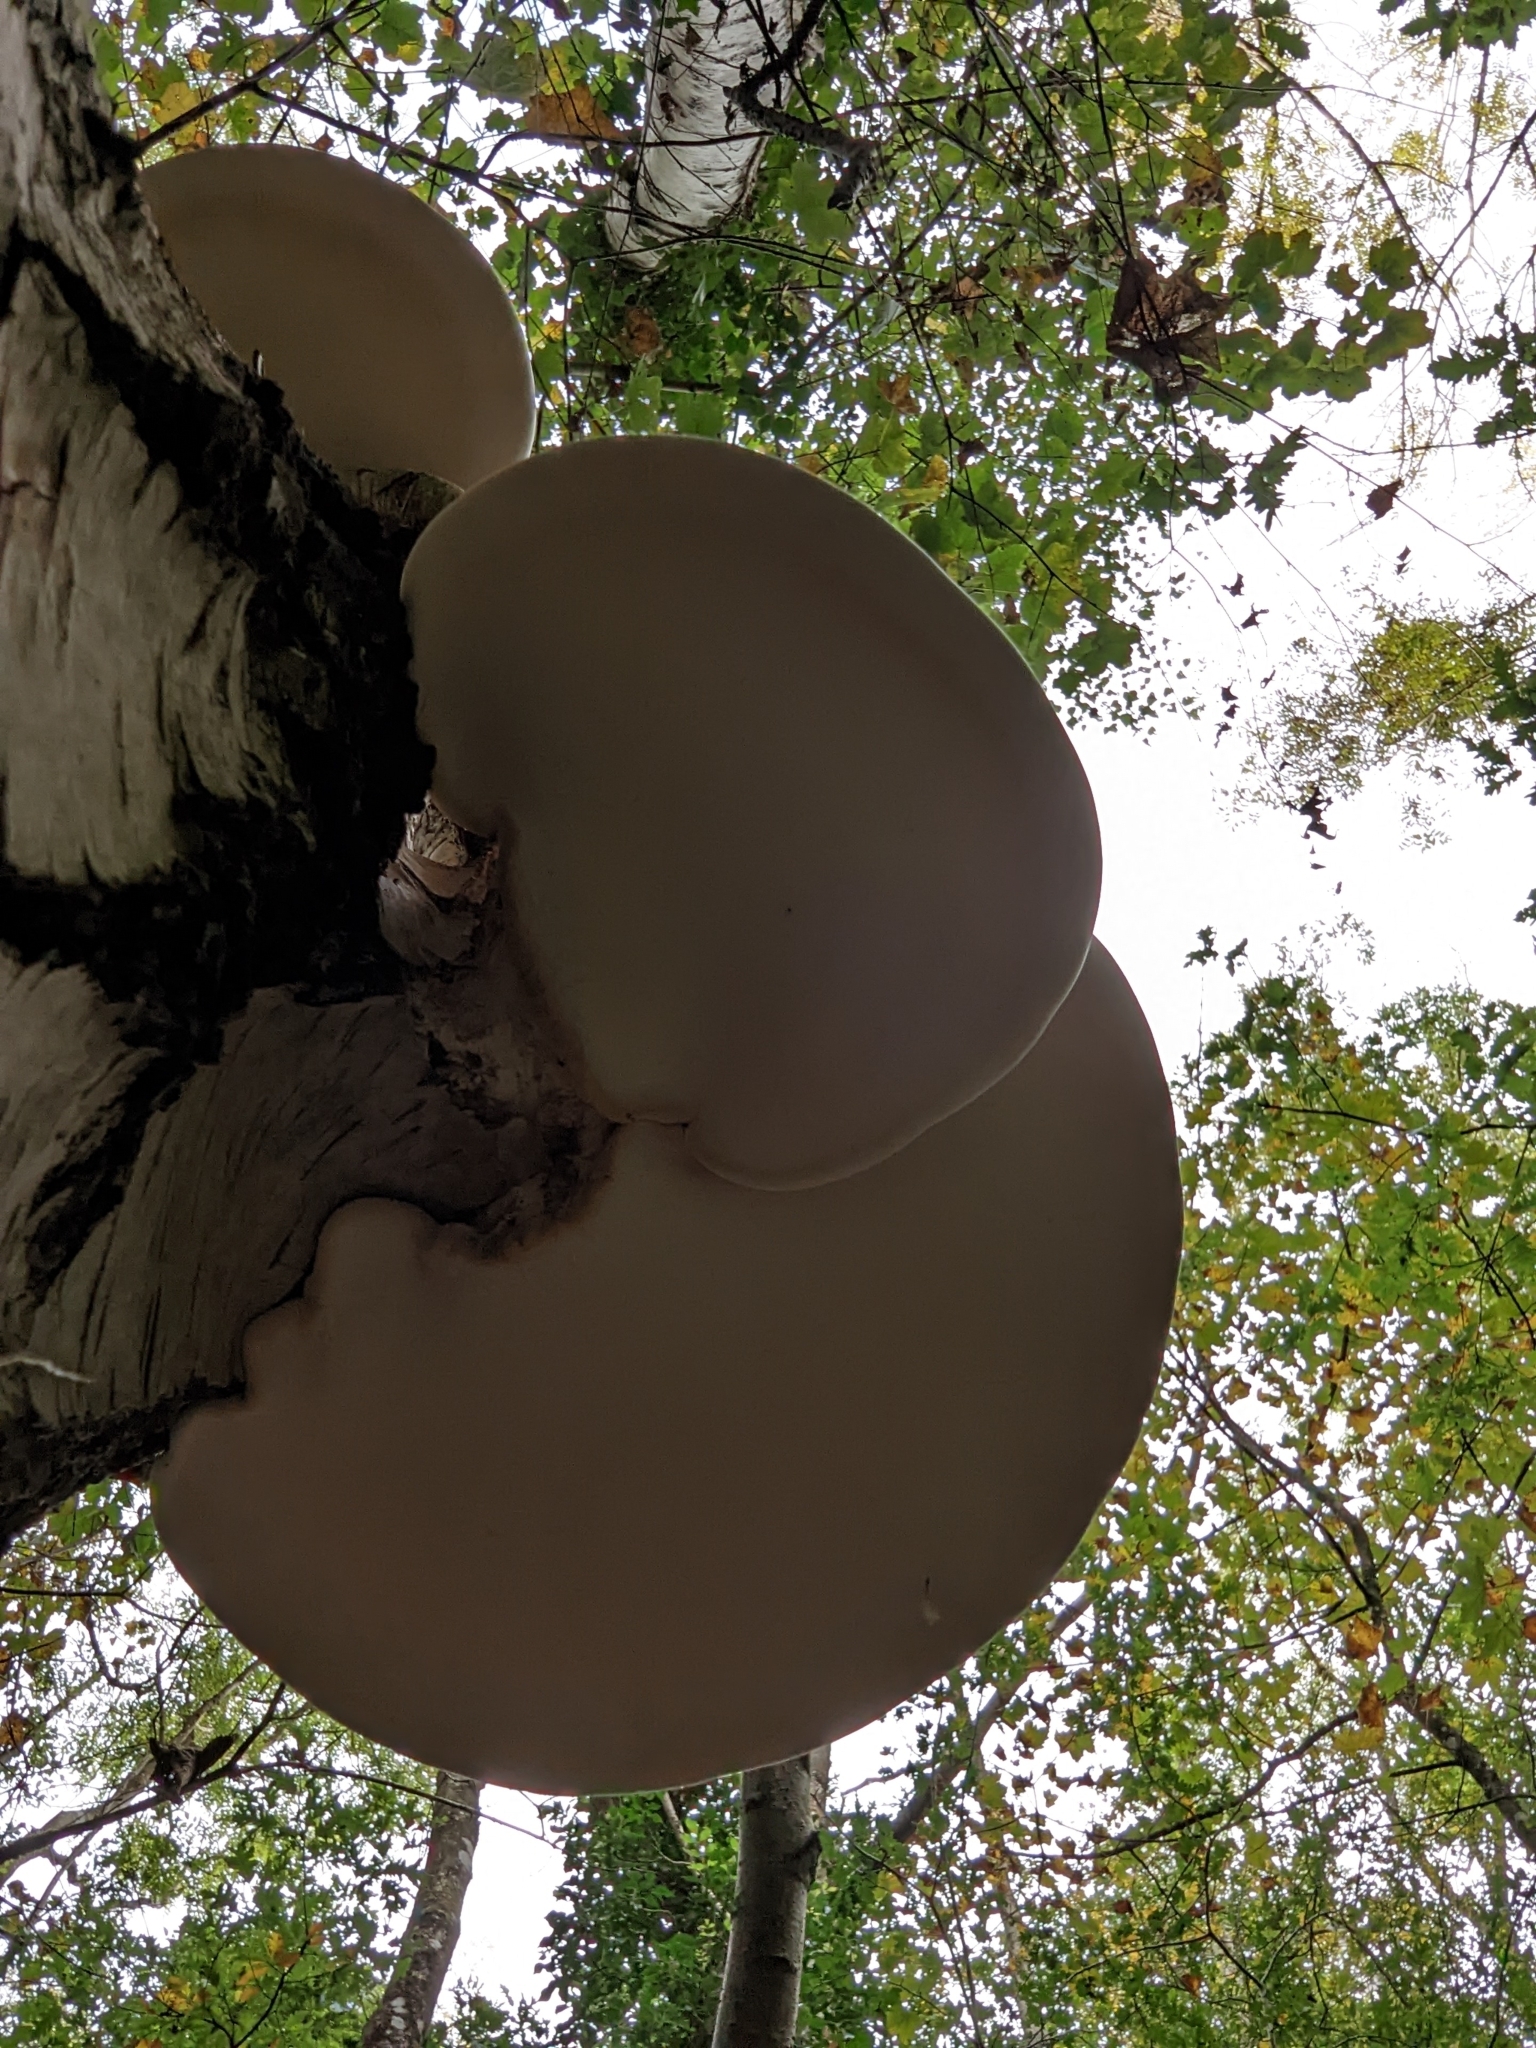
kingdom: Fungi
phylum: Basidiomycota
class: Agaricomycetes
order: Polyporales
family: Fomitopsidaceae
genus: Fomitopsis
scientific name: Fomitopsis betulina
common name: Birch polypore
